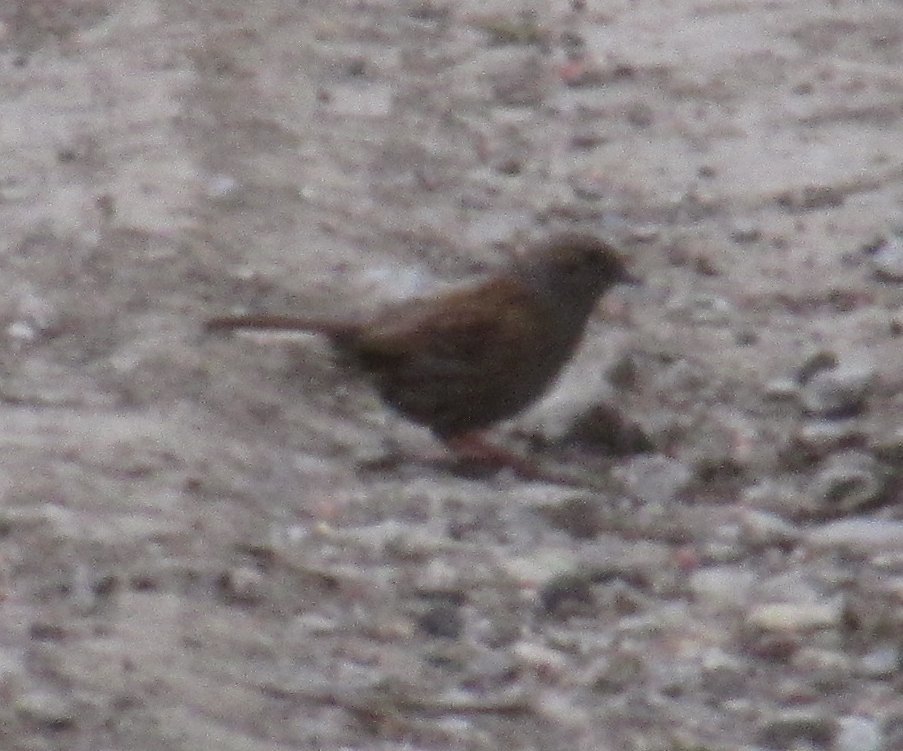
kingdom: Animalia
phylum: Chordata
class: Aves
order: Passeriformes
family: Prunellidae
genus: Prunella
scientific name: Prunella modularis
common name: Dunnock
